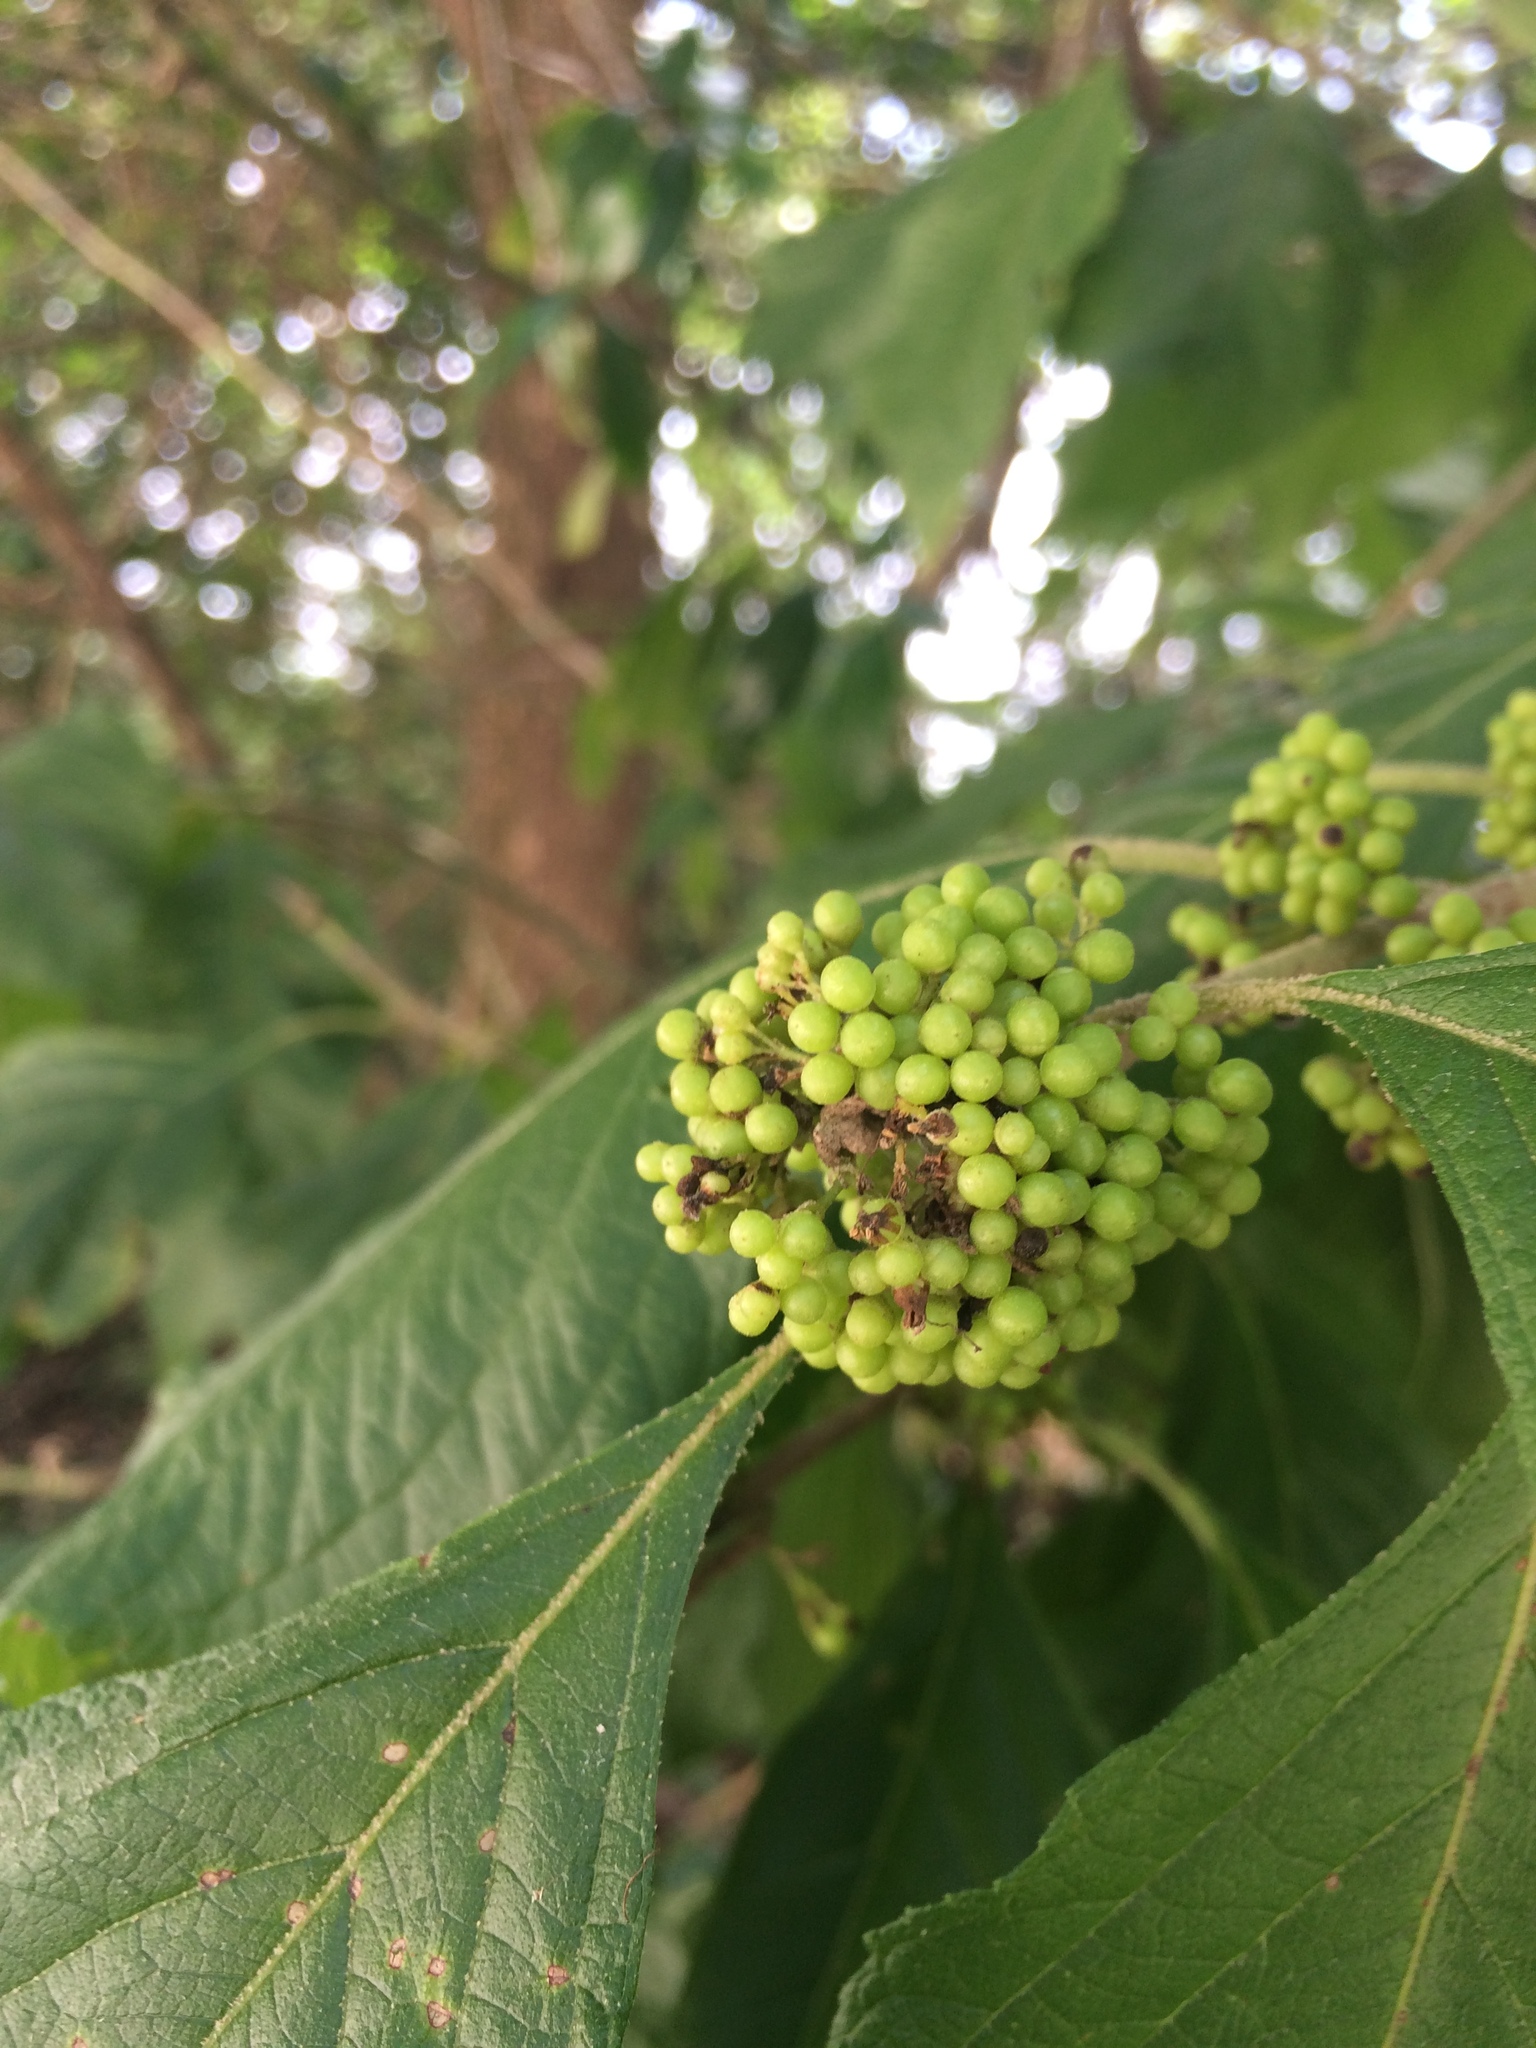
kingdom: Plantae
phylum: Tracheophyta
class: Magnoliopsida
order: Lamiales
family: Lamiaceae
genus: Callicarpa
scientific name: Callicarpa americana
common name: American beautyberry
